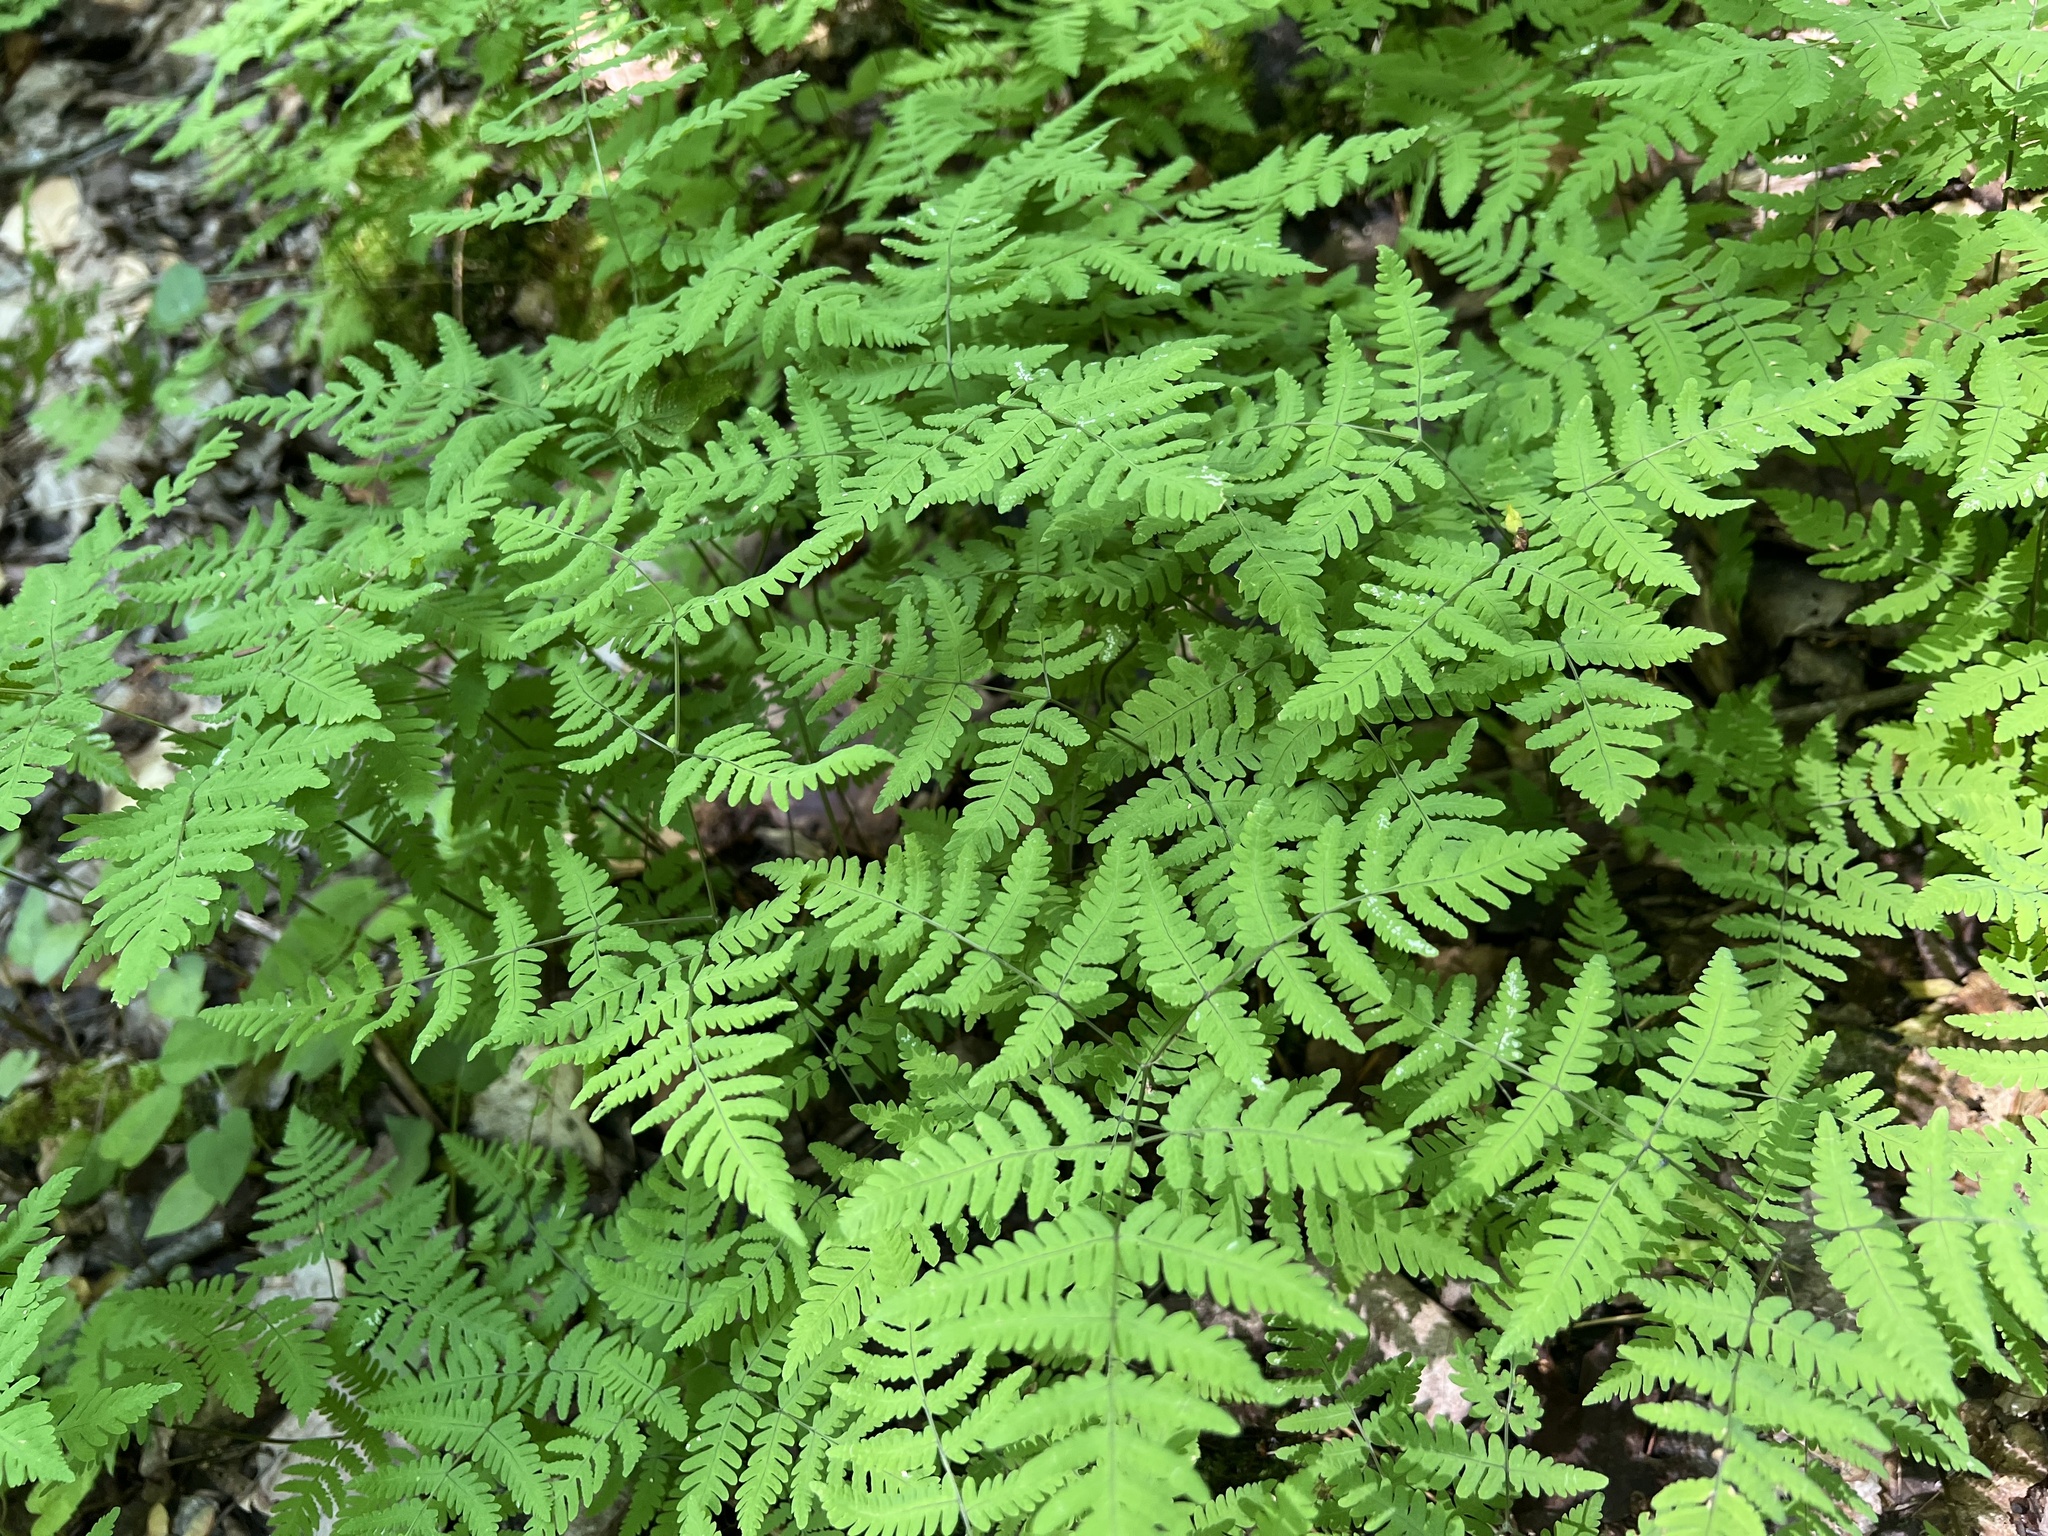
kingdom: Plantae
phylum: Tracheophyta
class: Polypodiopsida
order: Polypodiales
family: Cystopteridaceae
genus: Gymnocarpium
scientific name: Gymnocarpium dryopteris
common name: Oak fern
